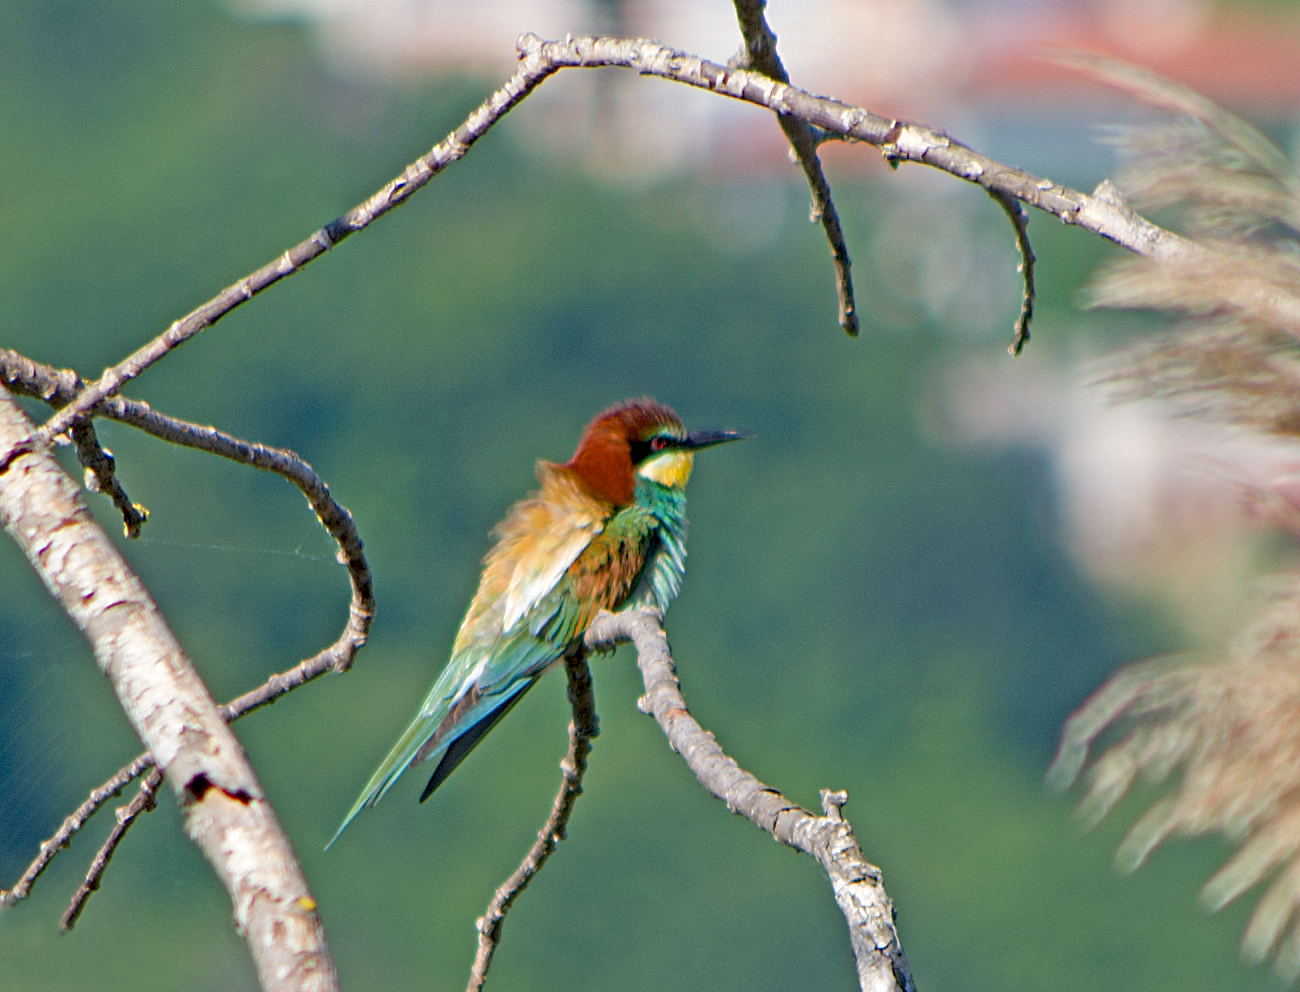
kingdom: Animalia
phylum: Chordata
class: Aves
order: Coraciiformes
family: Meropidae
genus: Merops
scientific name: Merops apiaster
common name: European bee-eater
